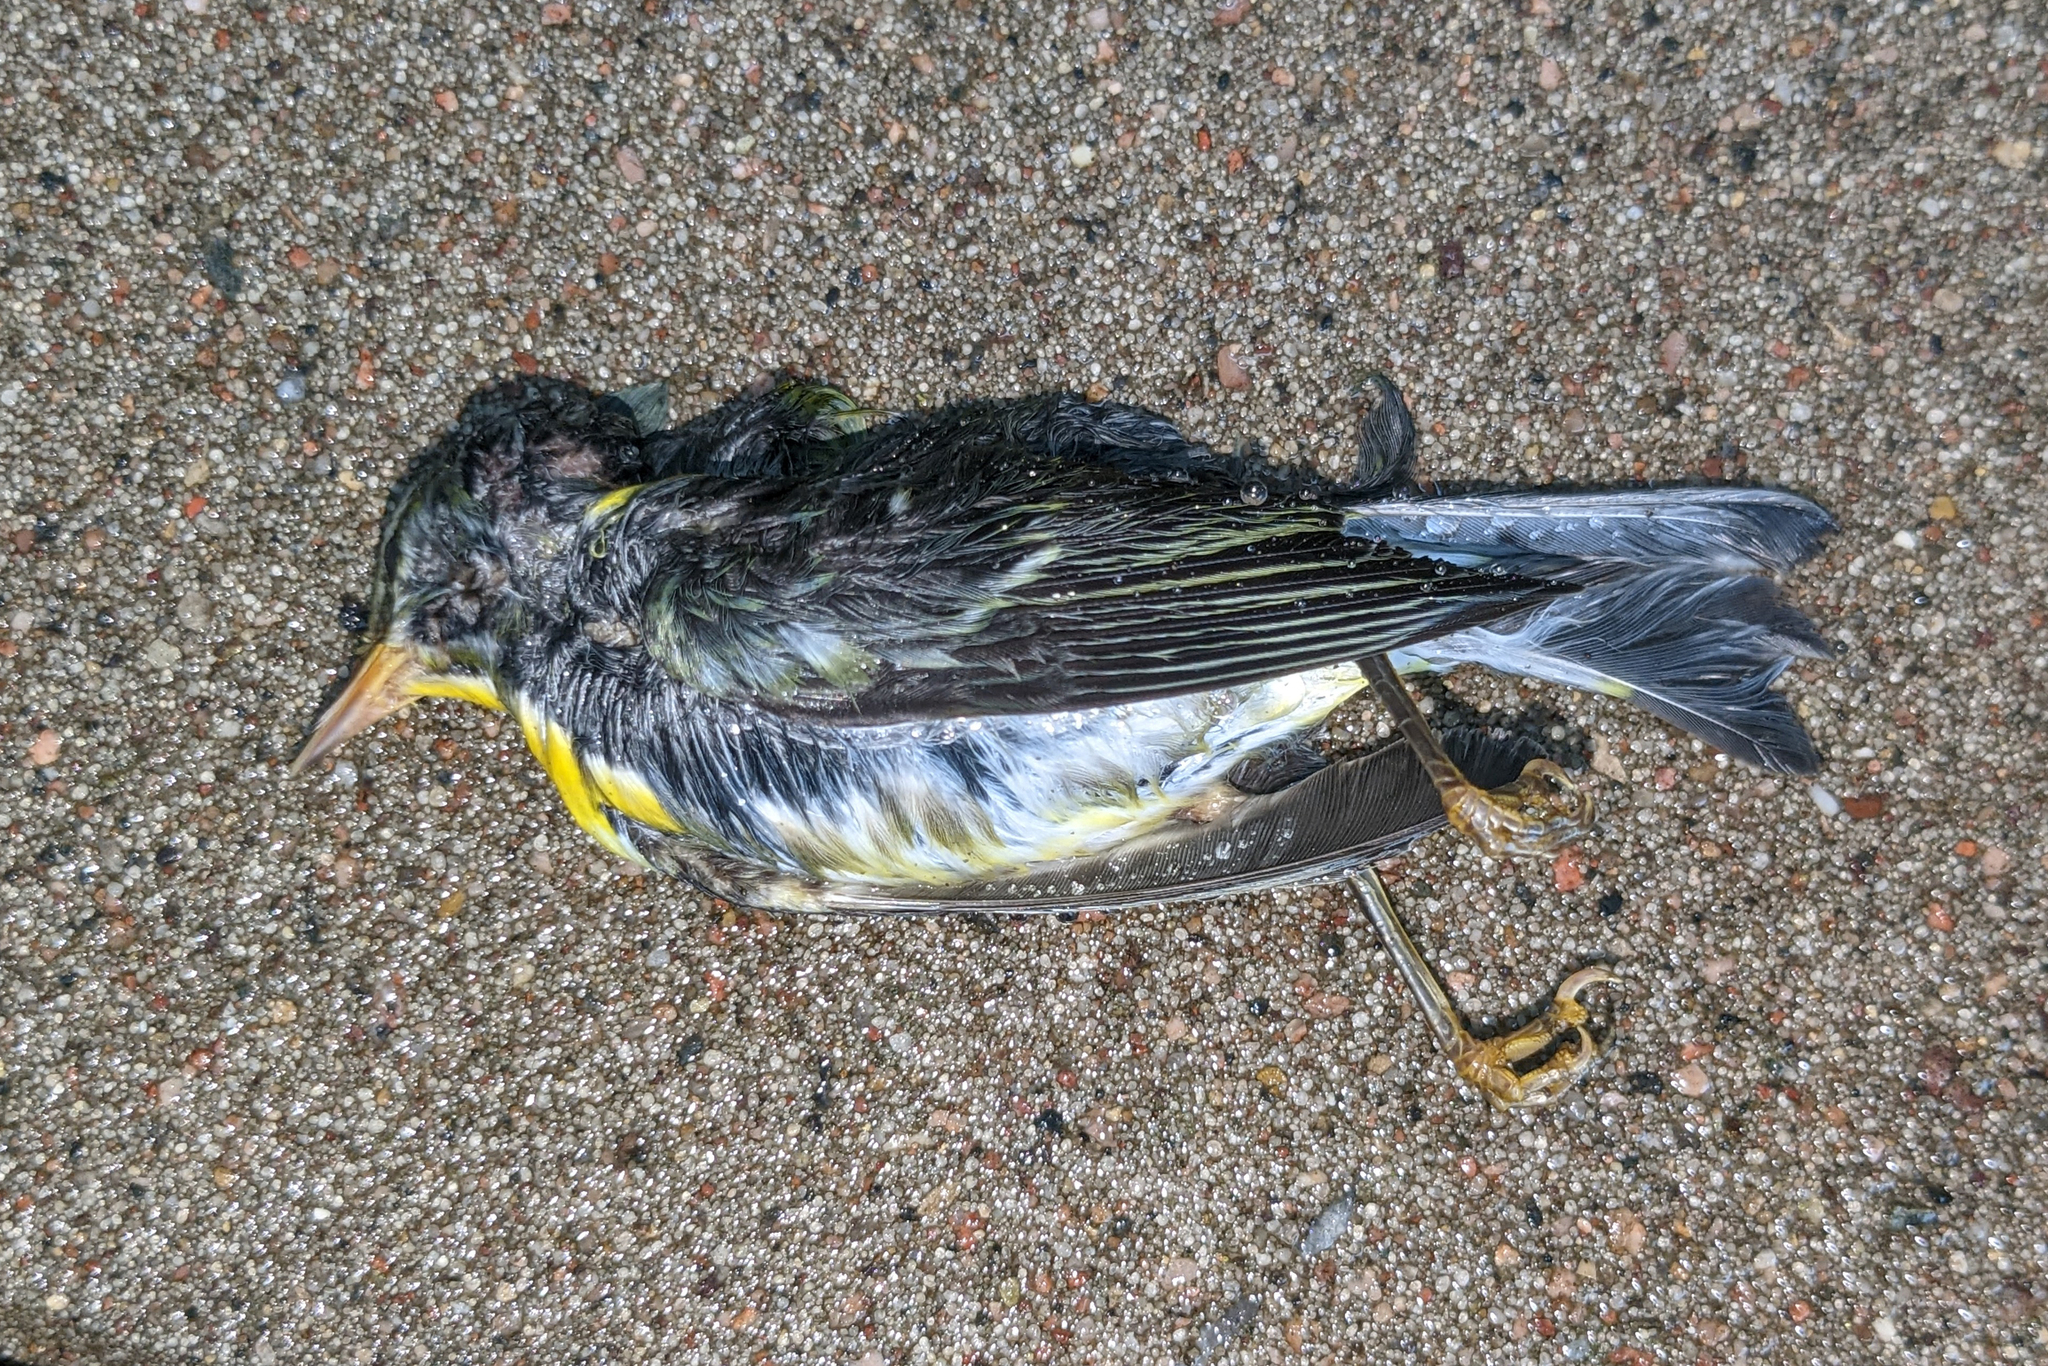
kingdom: Animalia
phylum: Chordata
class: Aves
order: Passeriformes
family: Parulidae
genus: Setophaga
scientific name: Setophaga americana
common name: Northern parula
